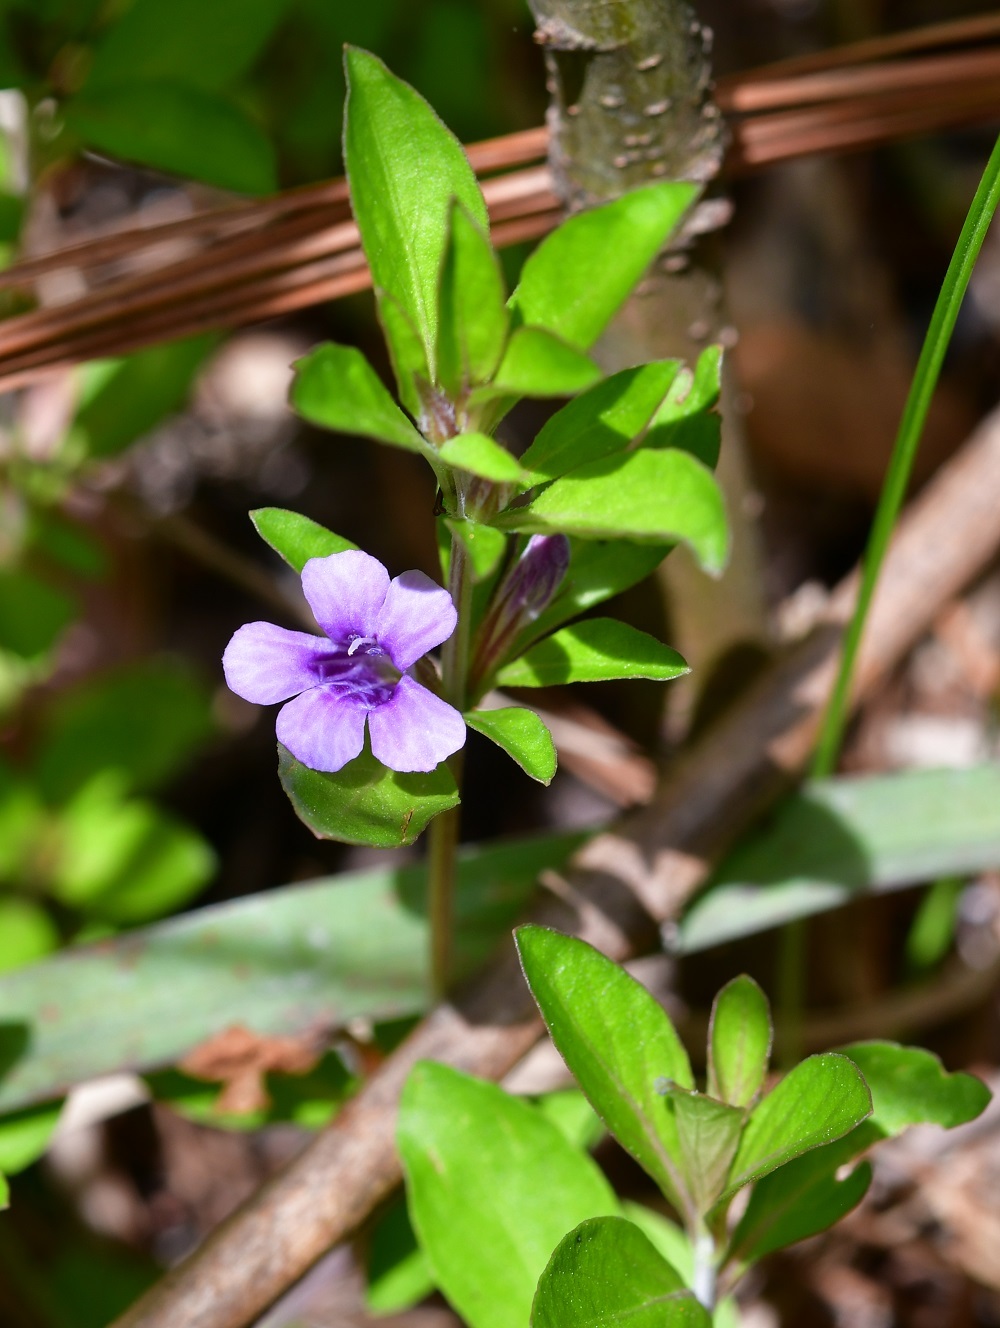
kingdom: Plantae
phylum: Tracheophyta
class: Magnoliopsida
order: Lamiales
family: Acanthaceae
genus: Dyschoriste
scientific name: Dyschoriste capitata
